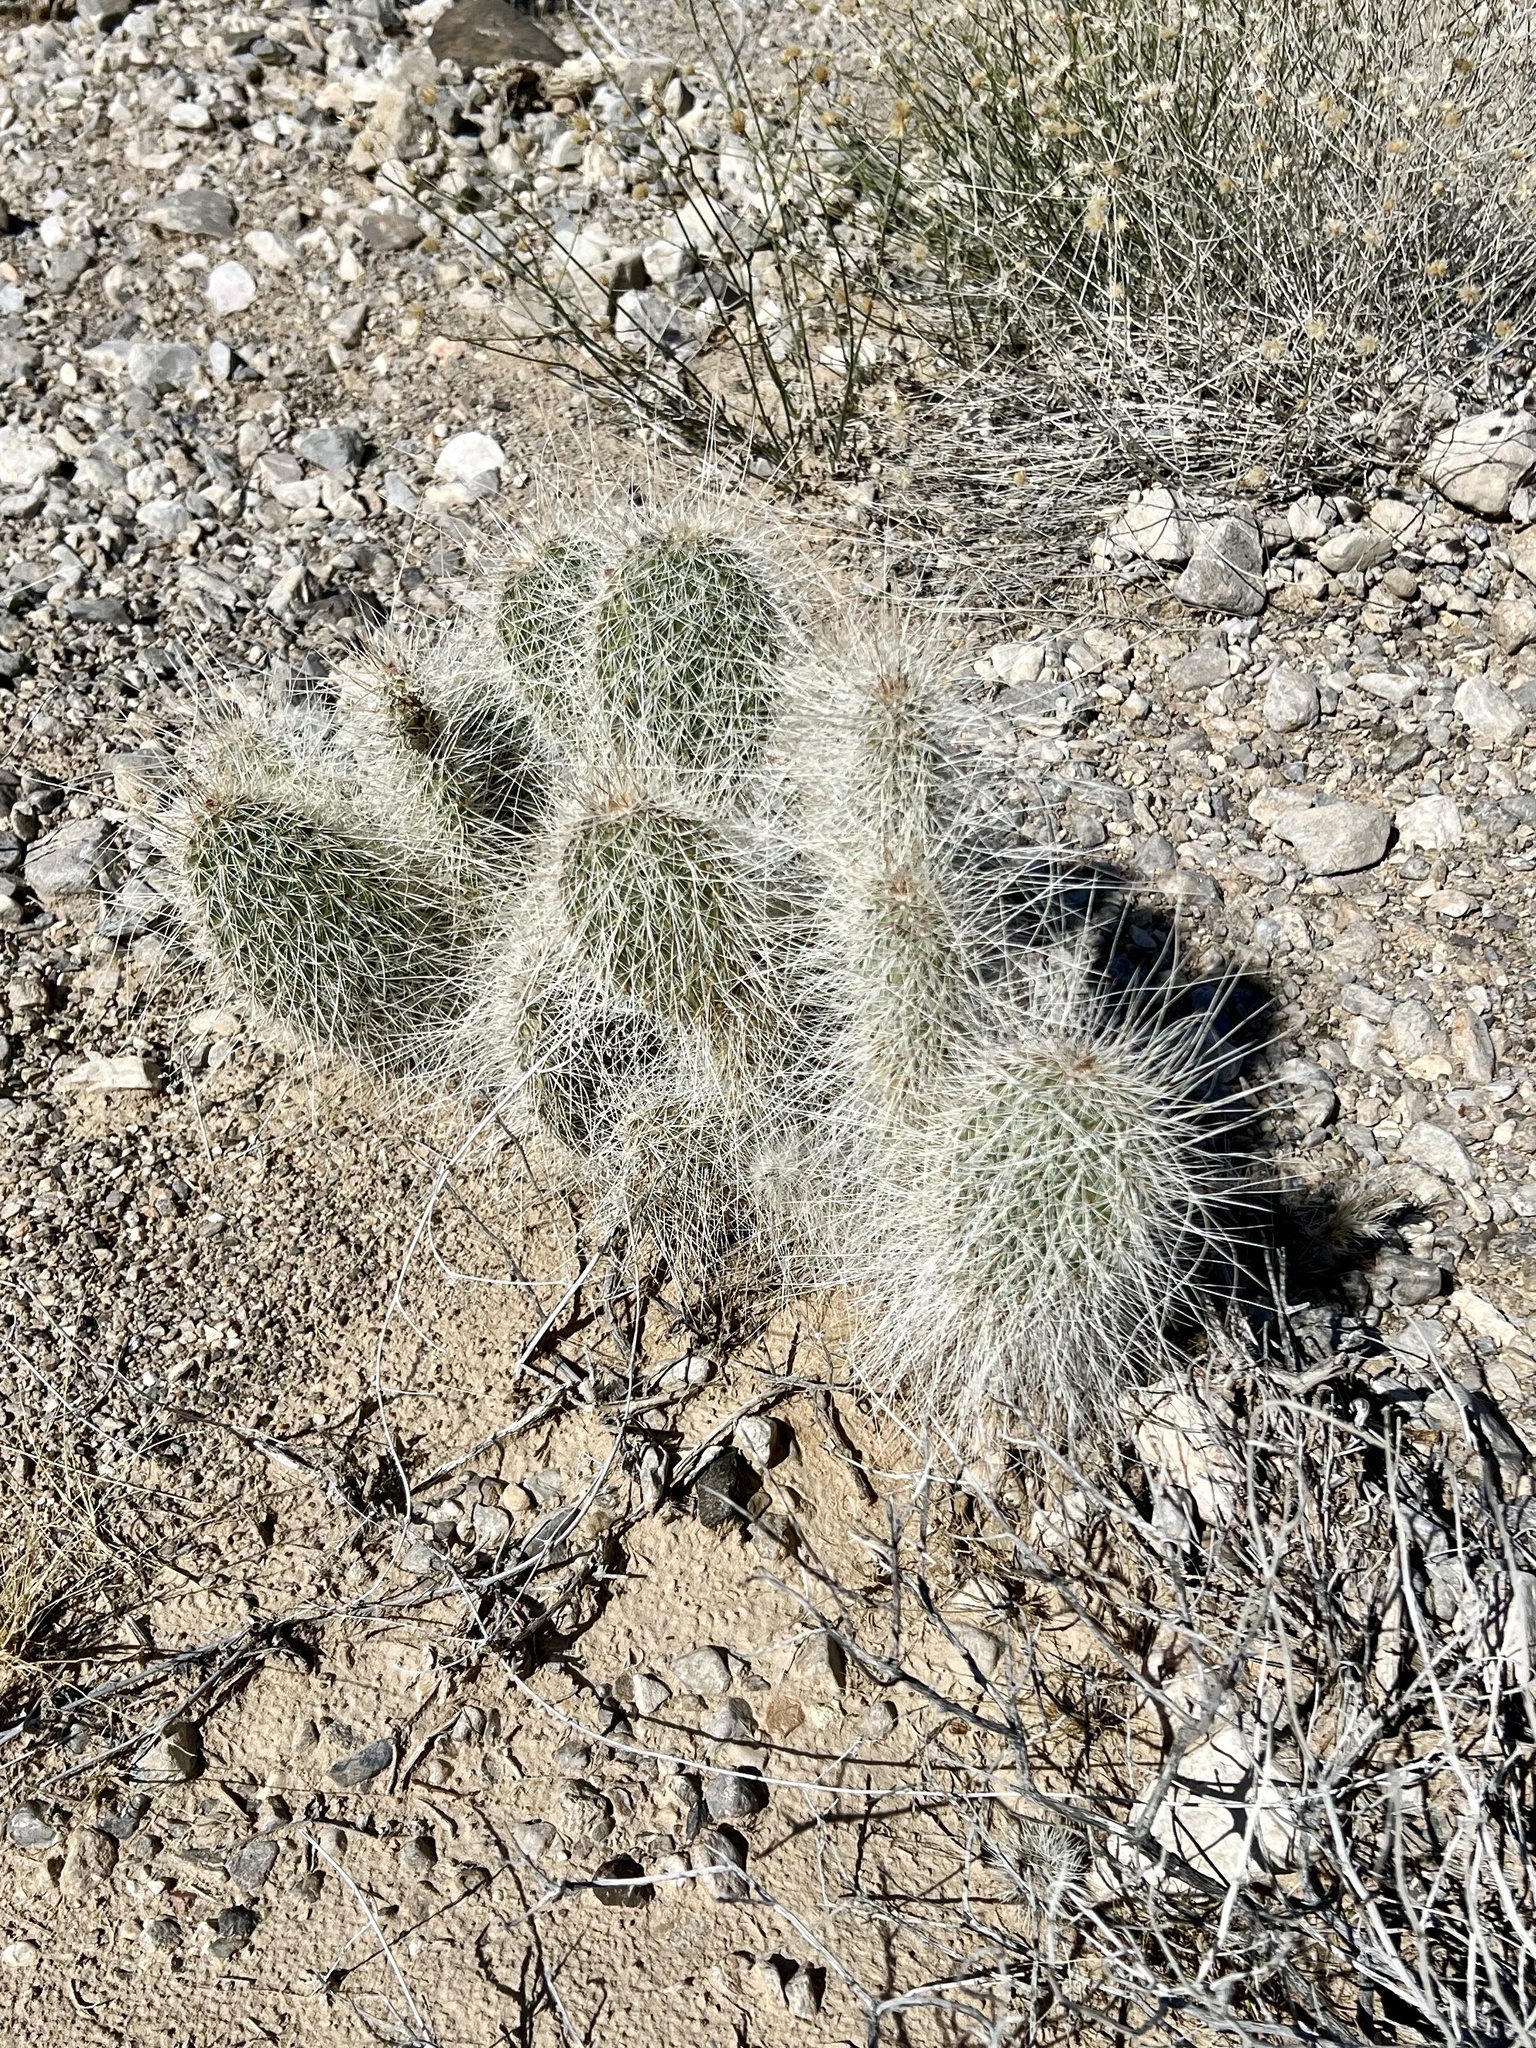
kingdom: Plantae
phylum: Tracheophyta
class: Magnoliopsida
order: Caryophyllales
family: Cactaceae
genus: Opuntia
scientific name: Opuntia polyacantha
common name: Plains prickly-pear
